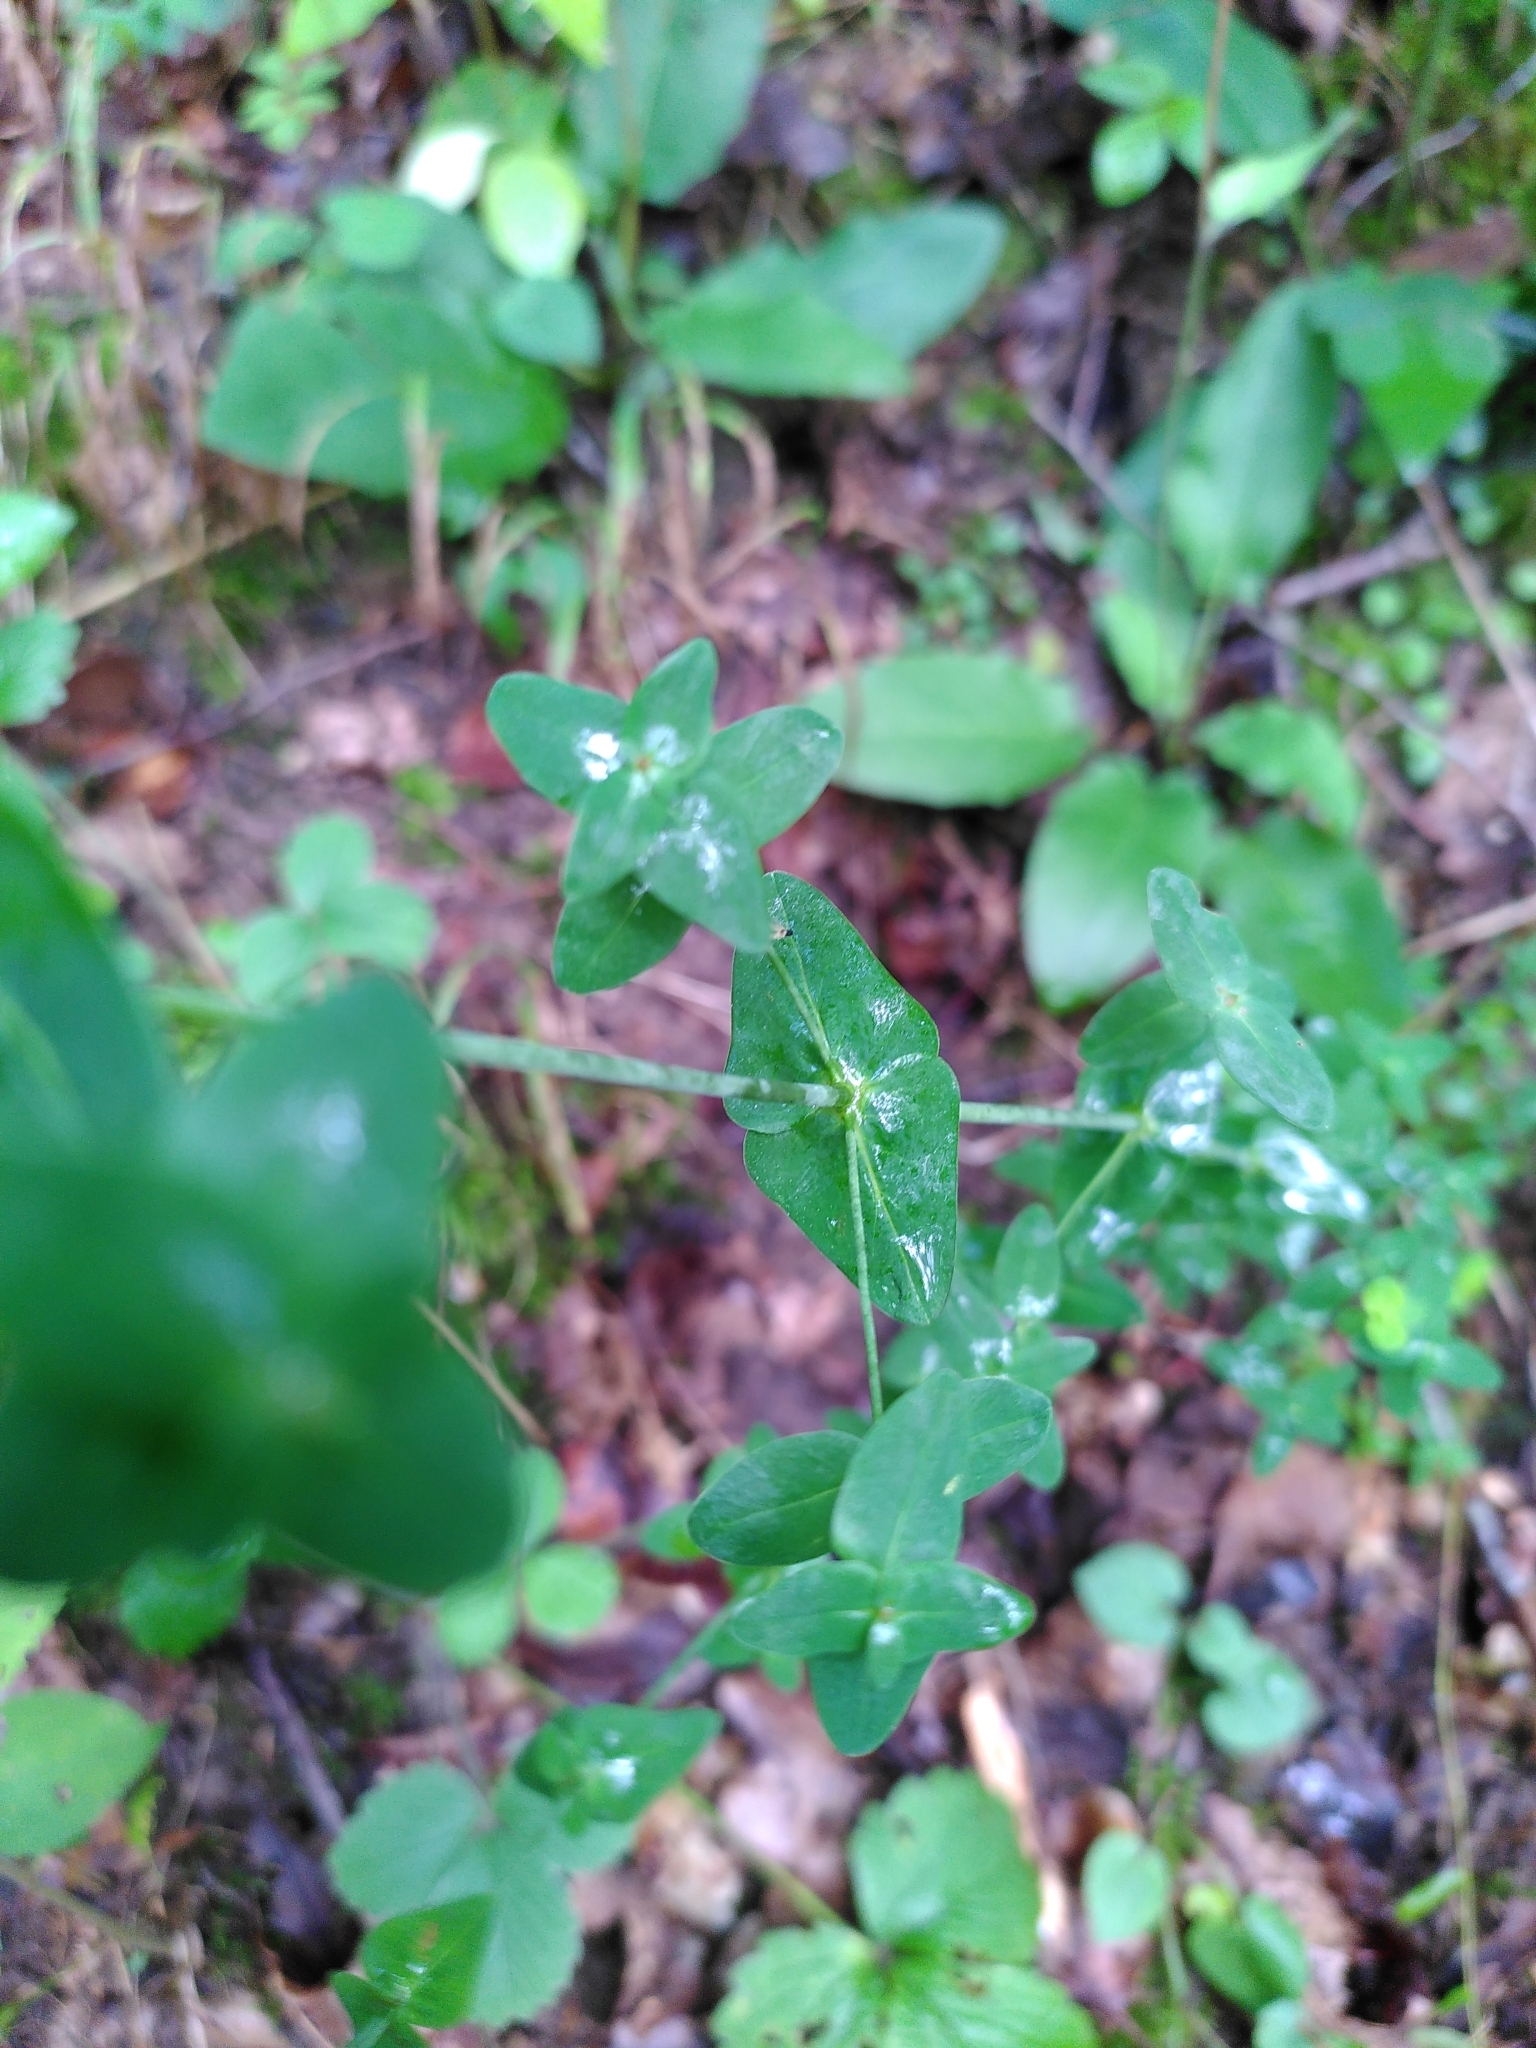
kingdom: Plantae
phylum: Tracheophyta
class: Magnoliopsida
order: Malpighiales
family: Hypericaceae
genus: Hypericum
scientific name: Hypericum pulchrum
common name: Slender st. john's-wort
